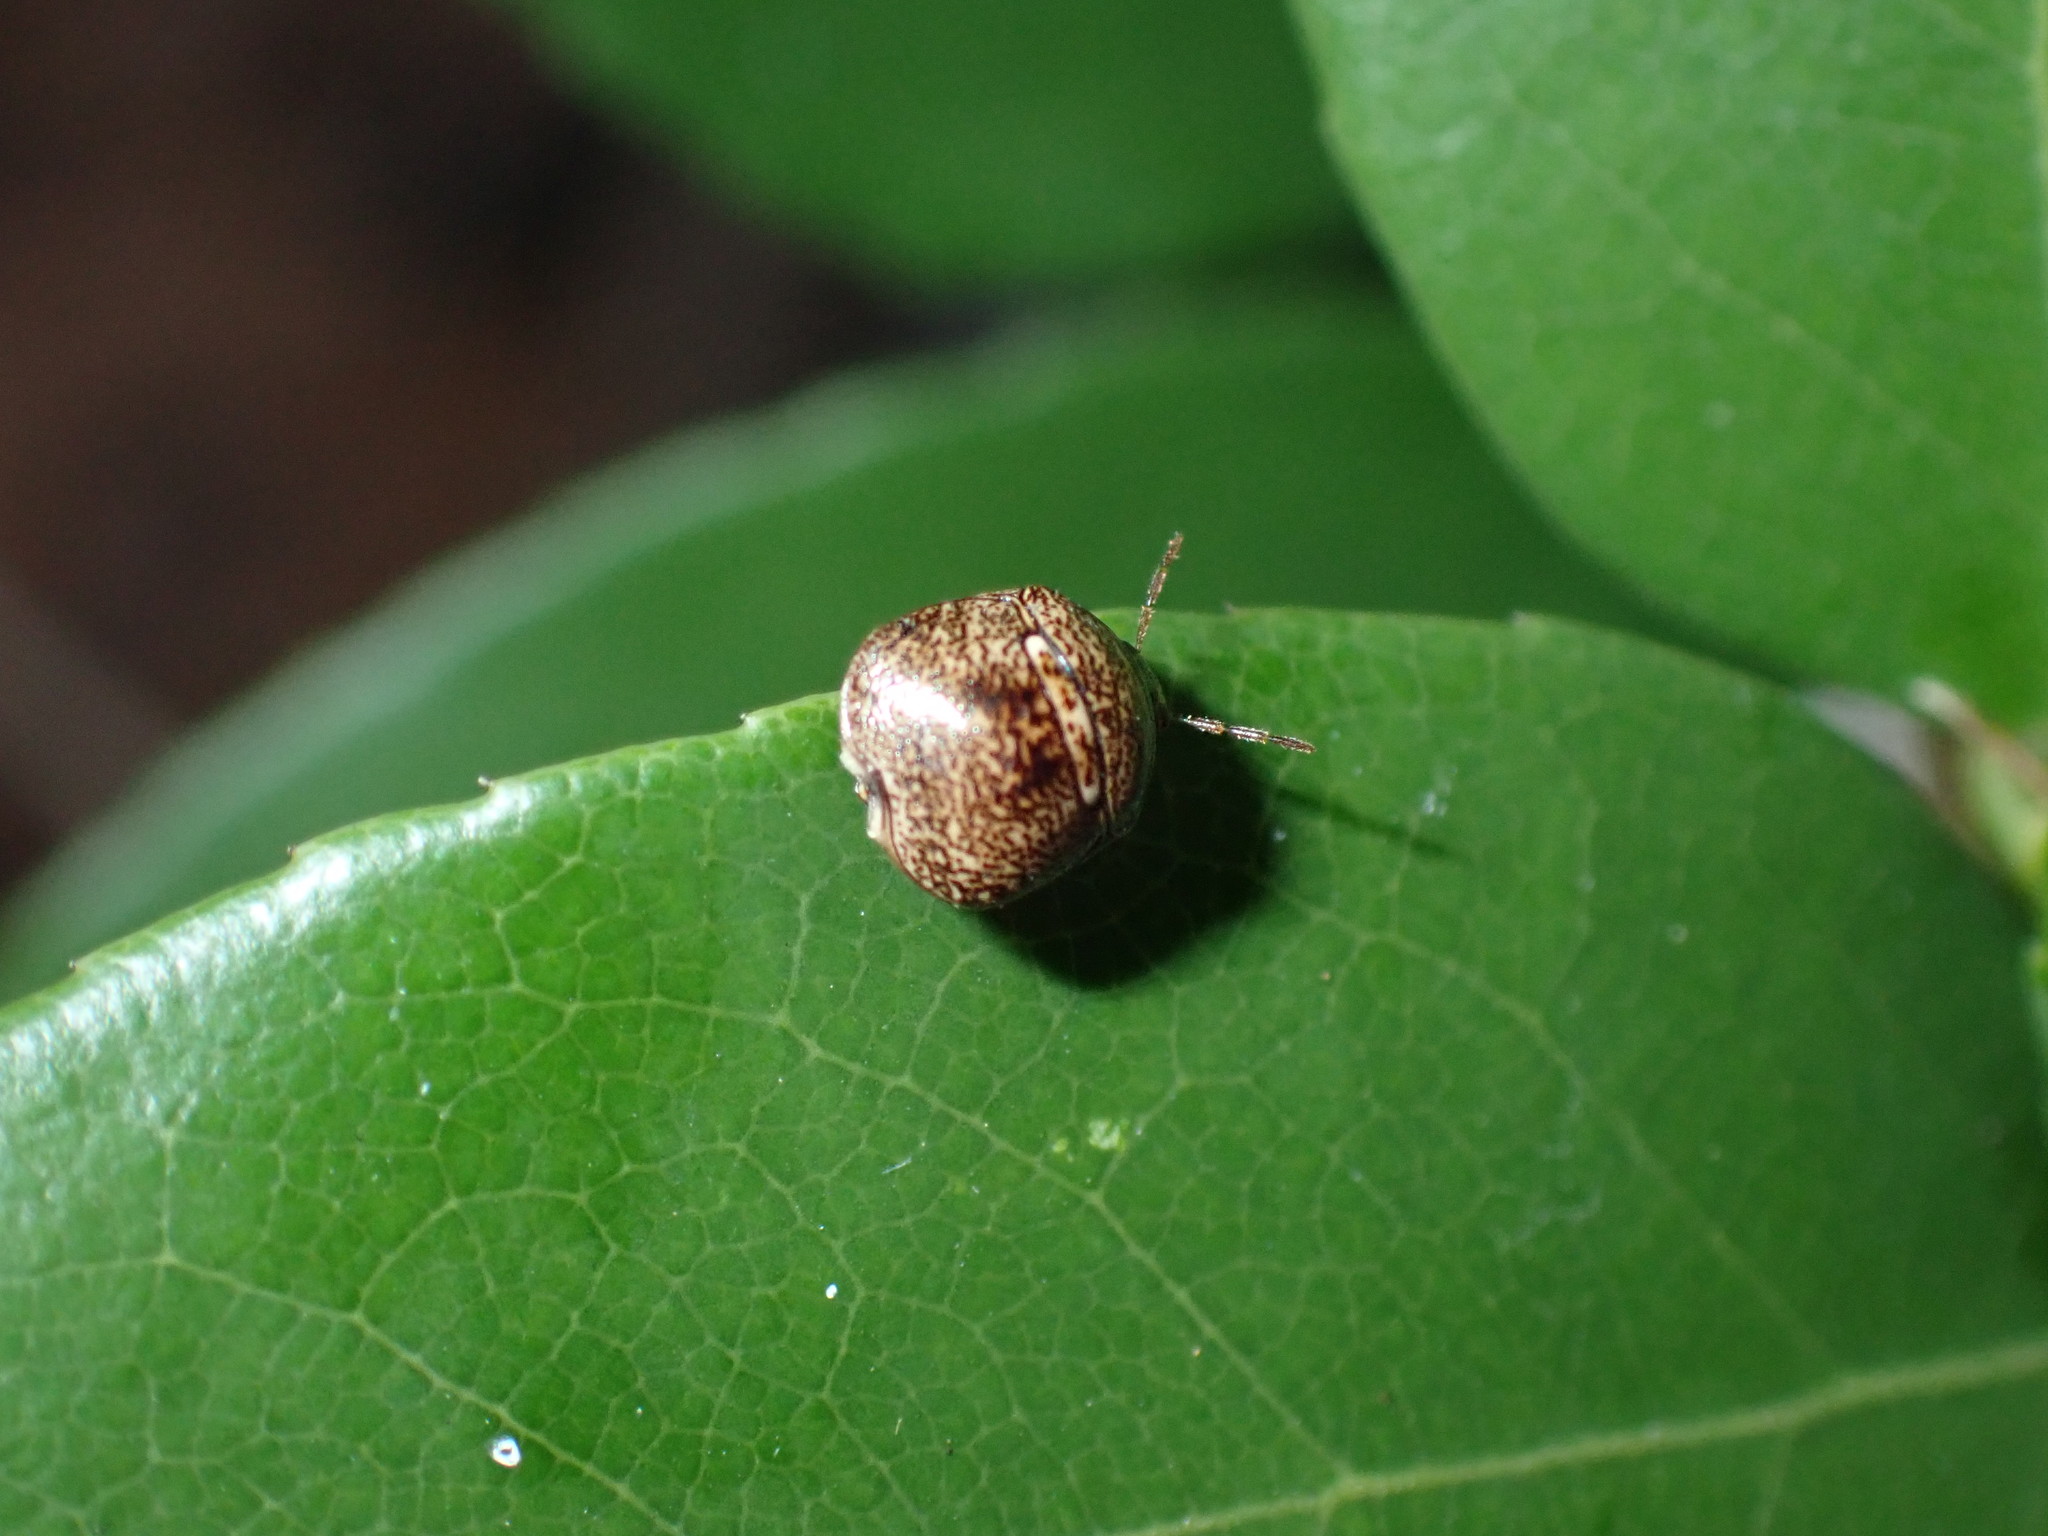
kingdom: Animalia
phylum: Arthropoda
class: Insecta
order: Hemiptera
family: Plataspidae
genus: Megacopta
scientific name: Megacopta cribraria
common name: Bean plataspid
